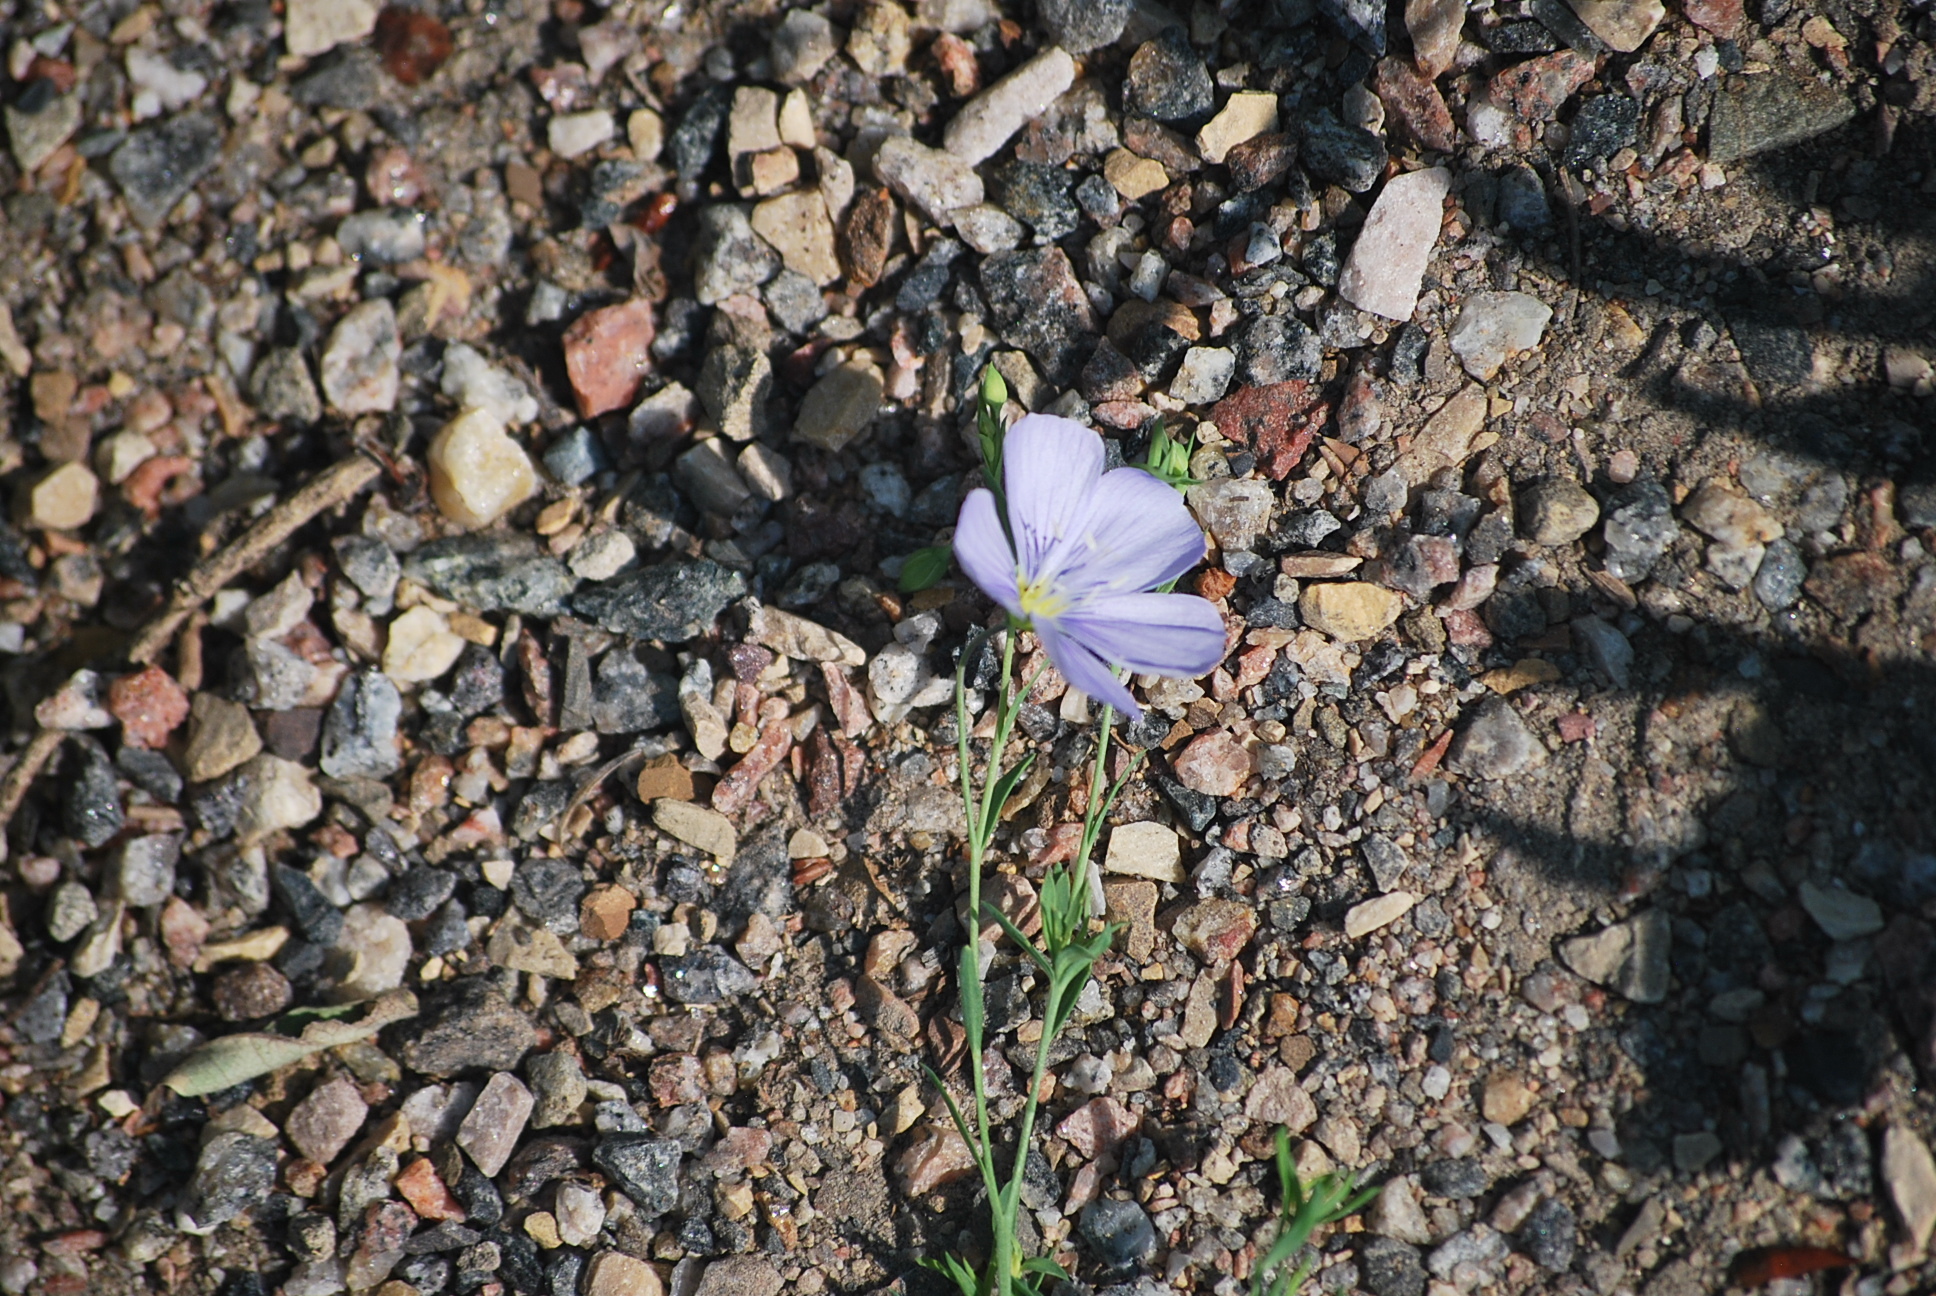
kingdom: Plantae
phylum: Tracheophyta
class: Magnoliopsida
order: Malpighiales
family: Linaceae
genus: Linum
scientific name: Linum lewisii
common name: Prairie flax
